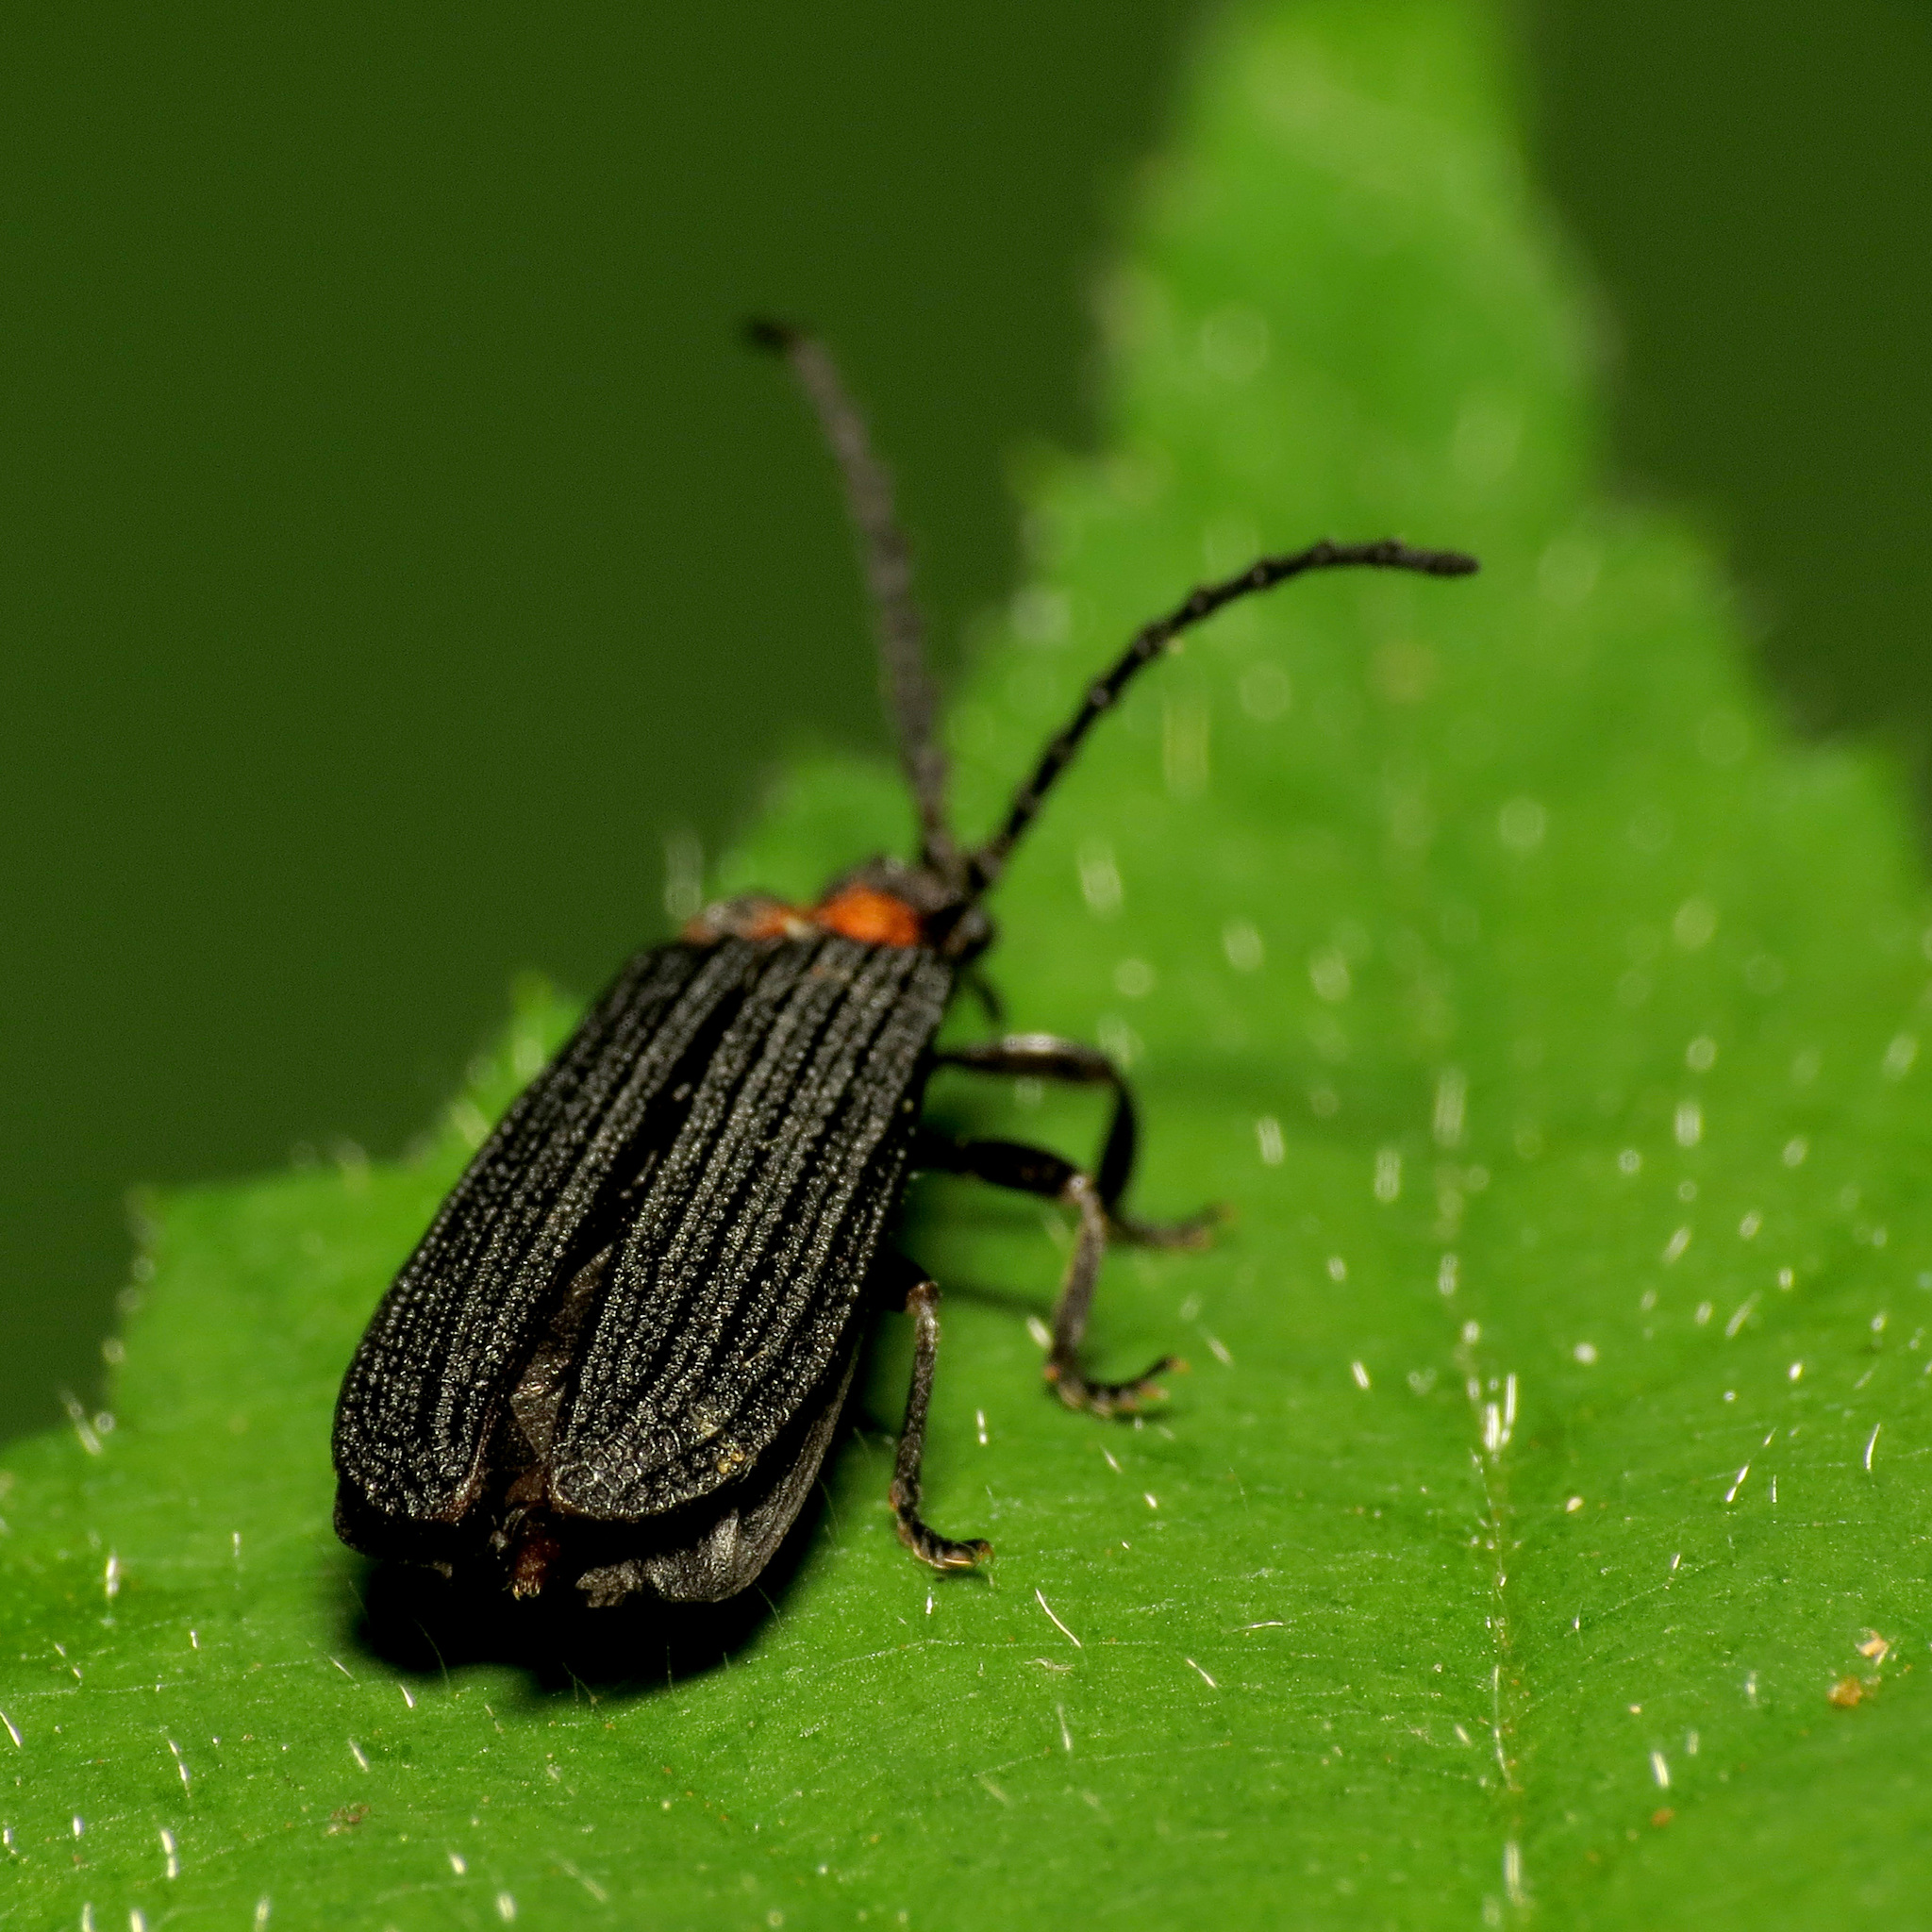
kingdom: Animalia
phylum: Arthropoda
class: Insecta
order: Coleoptera
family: Lycidae
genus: Lopheros
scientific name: Lopheros fraternus
